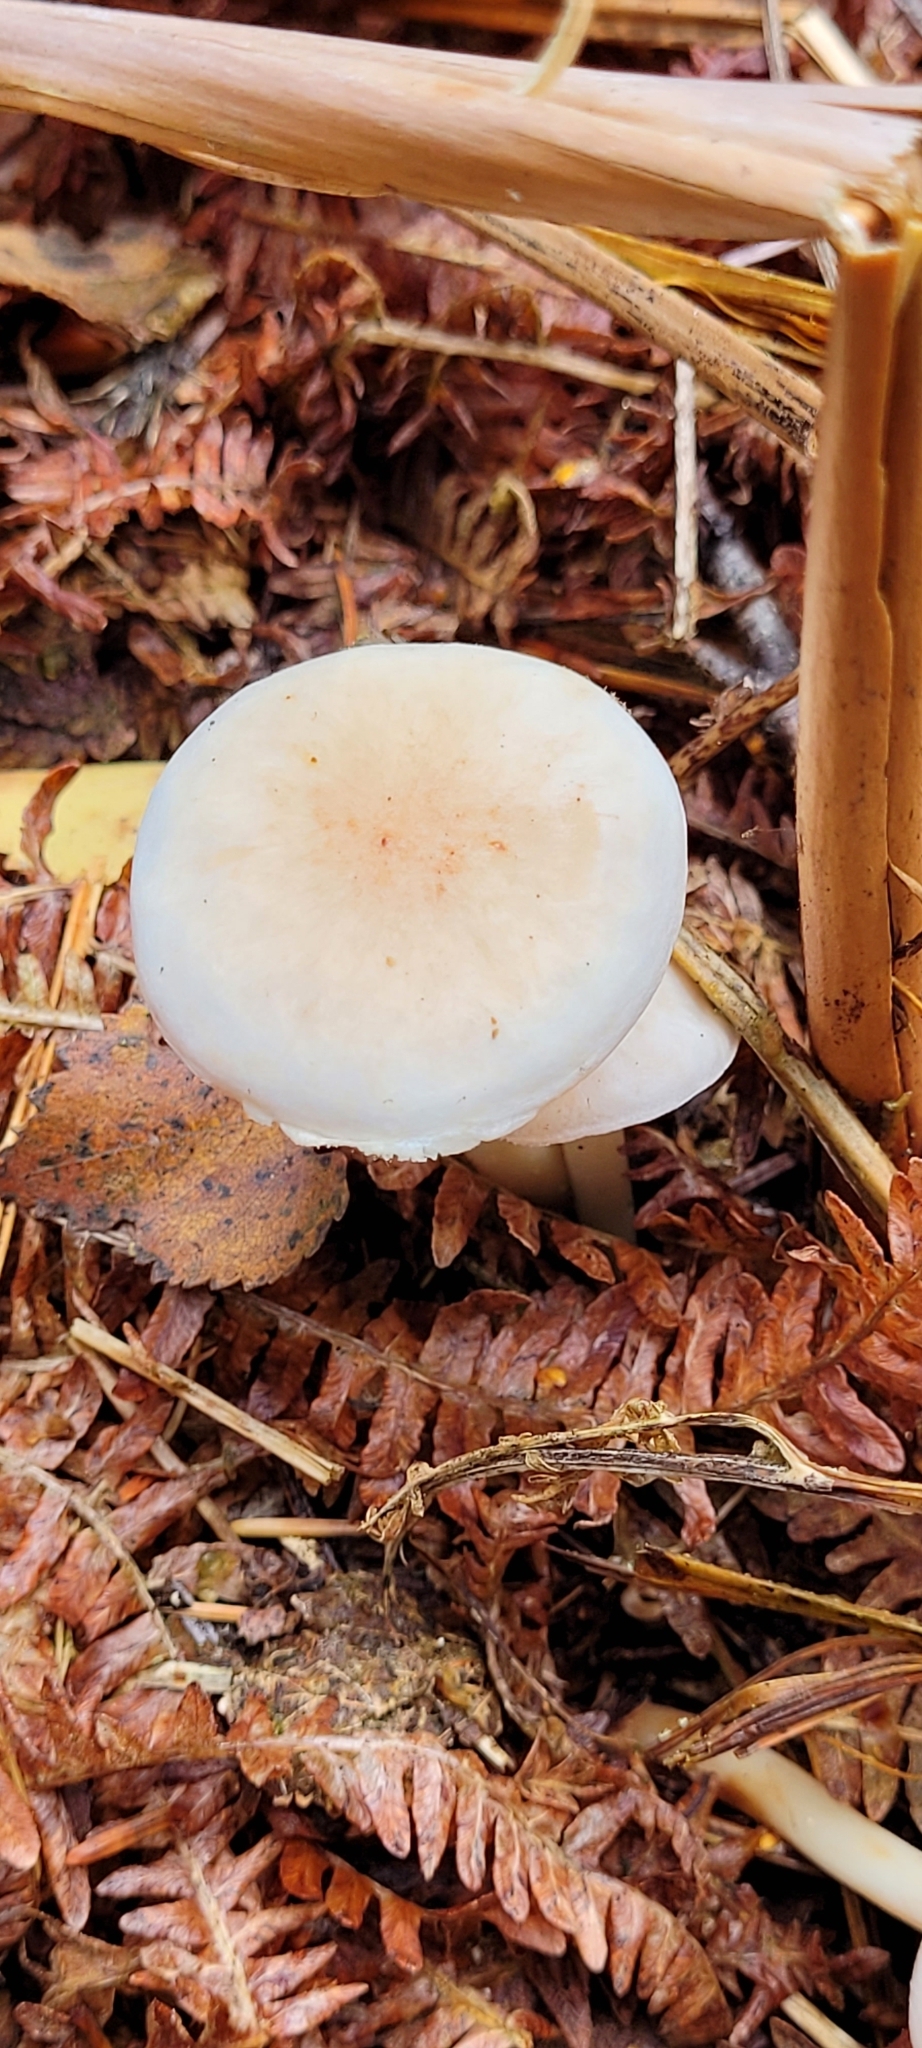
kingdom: Fungi
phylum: Basidiomycota
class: Agaricomycetes
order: Agaricales
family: Omphalotaceae
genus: Rhodocollybia
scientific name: Rhodocollybia maculata
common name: Spotted tough-shank
